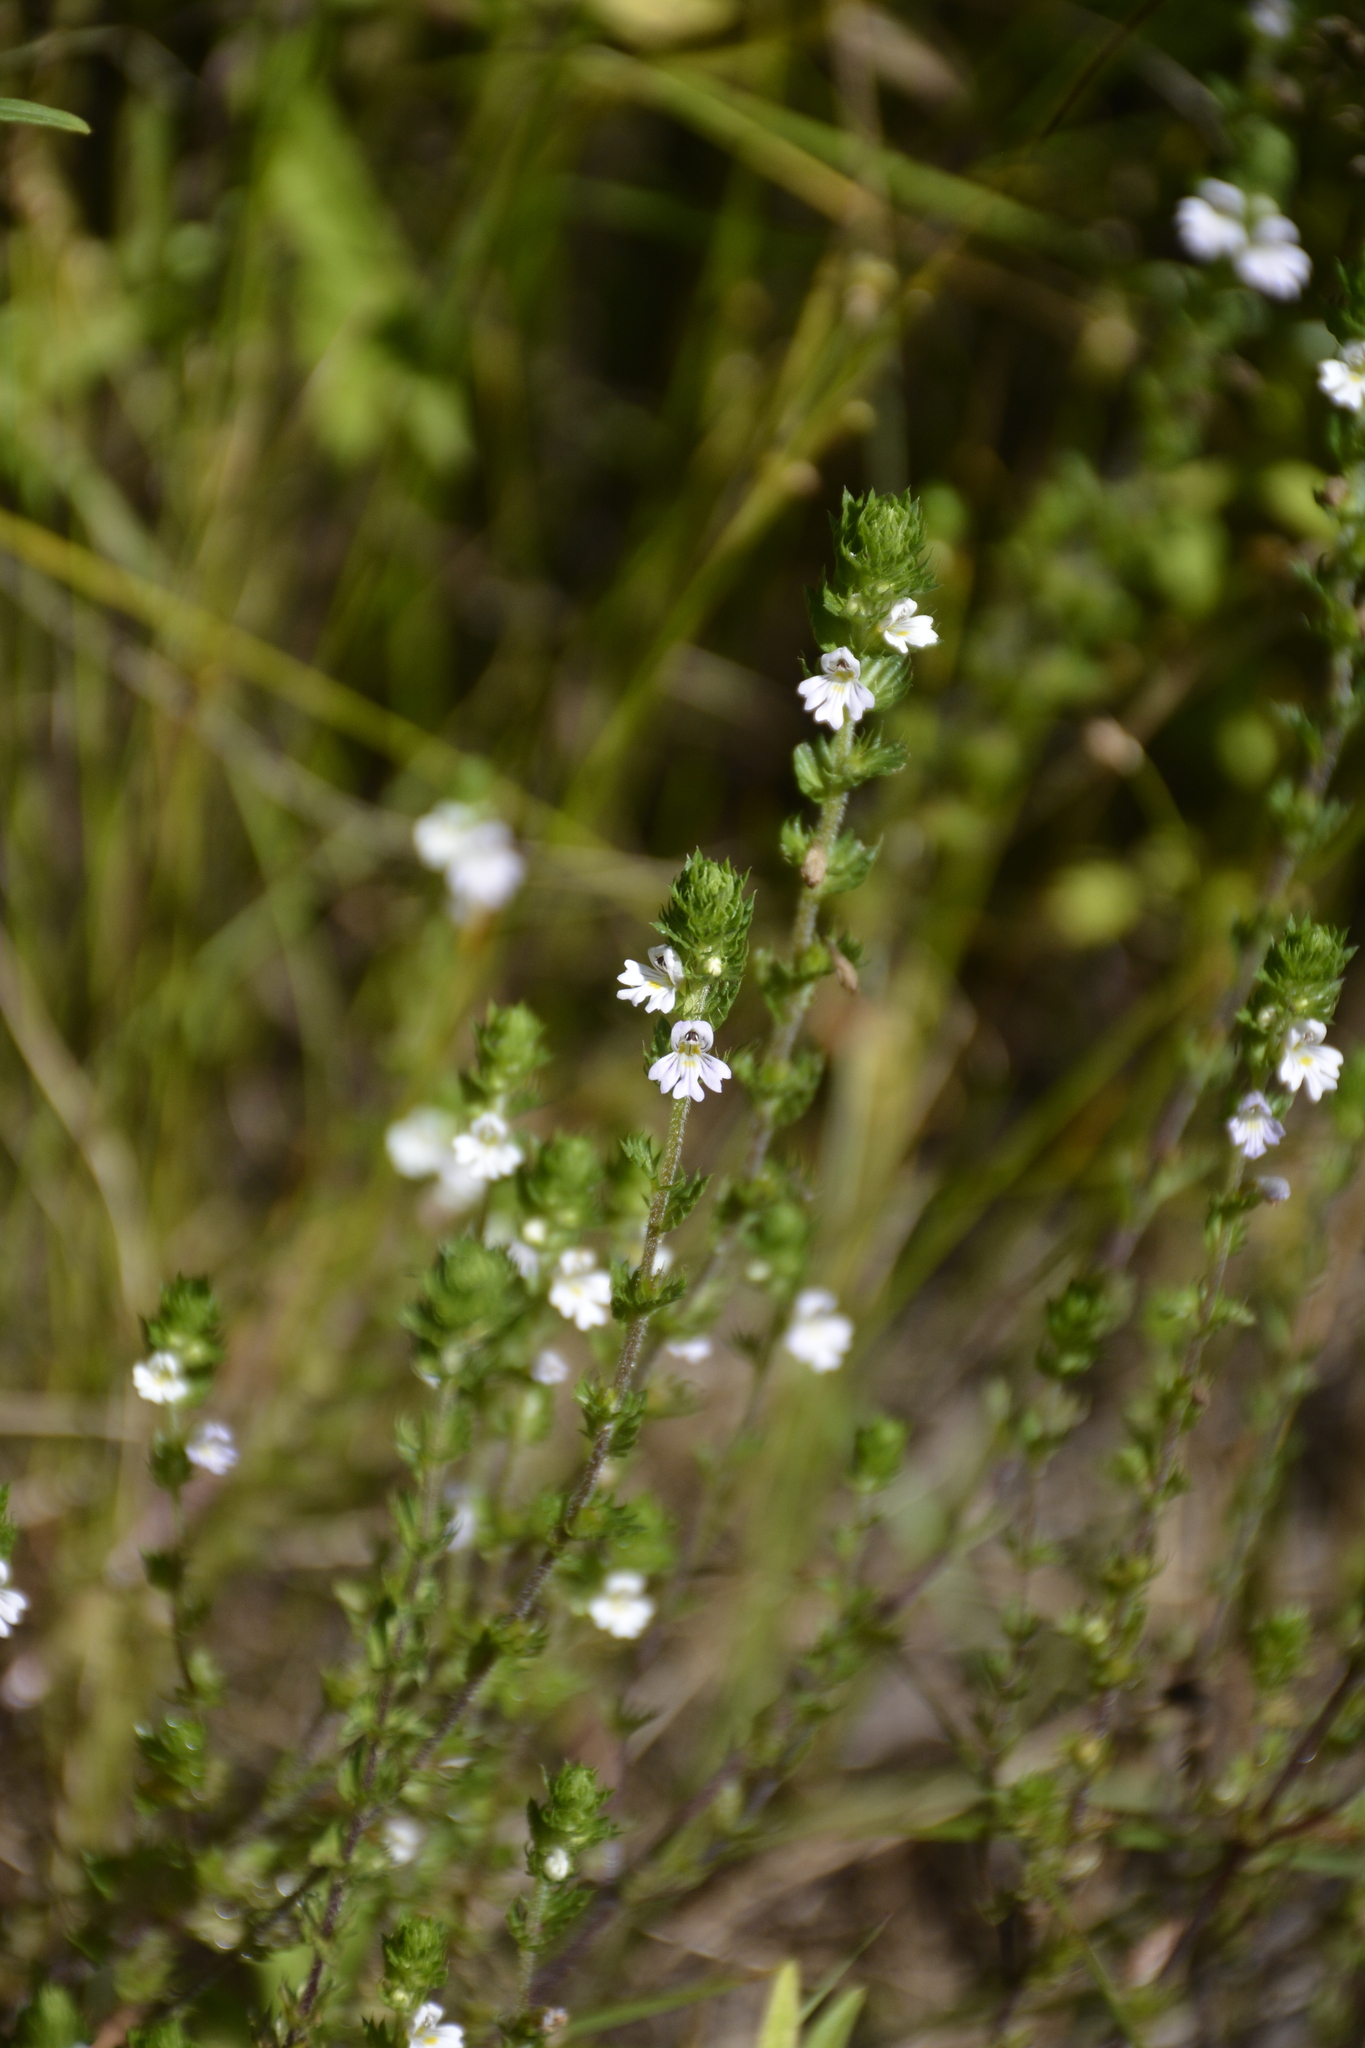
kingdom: Plantae
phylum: Tracheophyta
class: Magnoliopsida
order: Lamiales
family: Orobanchaceae
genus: Euphrasia
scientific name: Euphrasia stricta
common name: Drug eyebright
